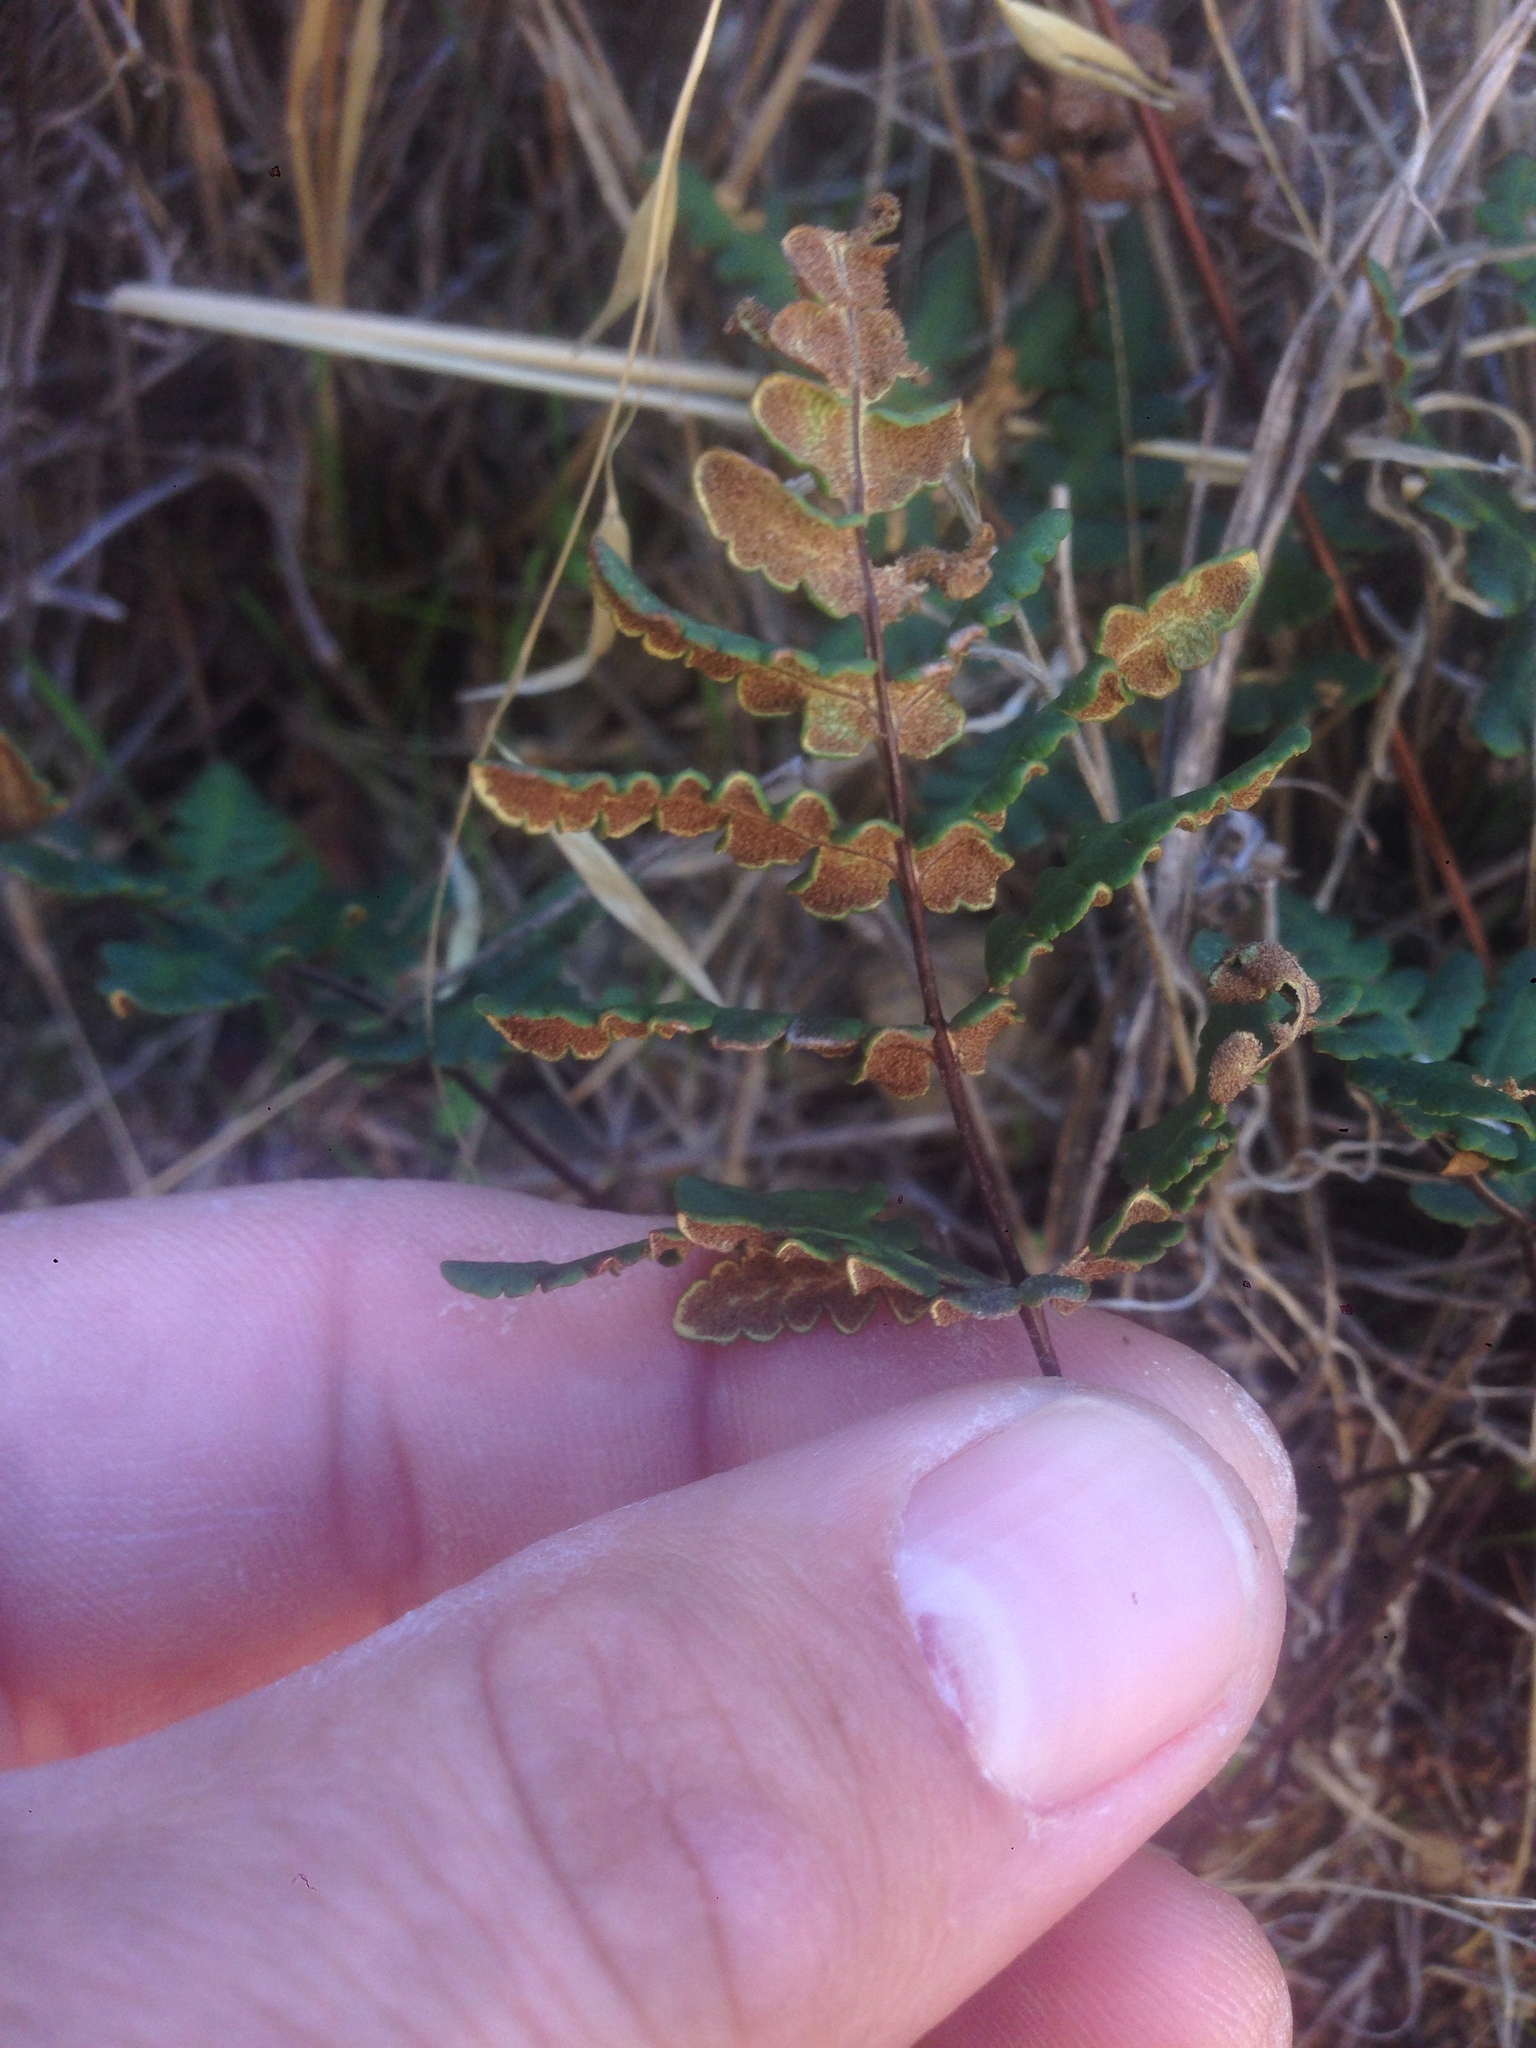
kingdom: Plantae
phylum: Tracheophyta
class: Polypodiopsida
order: Polypodiales
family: Pteridaceae
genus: Pentagramma
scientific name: Pentagramma triangularis
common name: Gold fern
